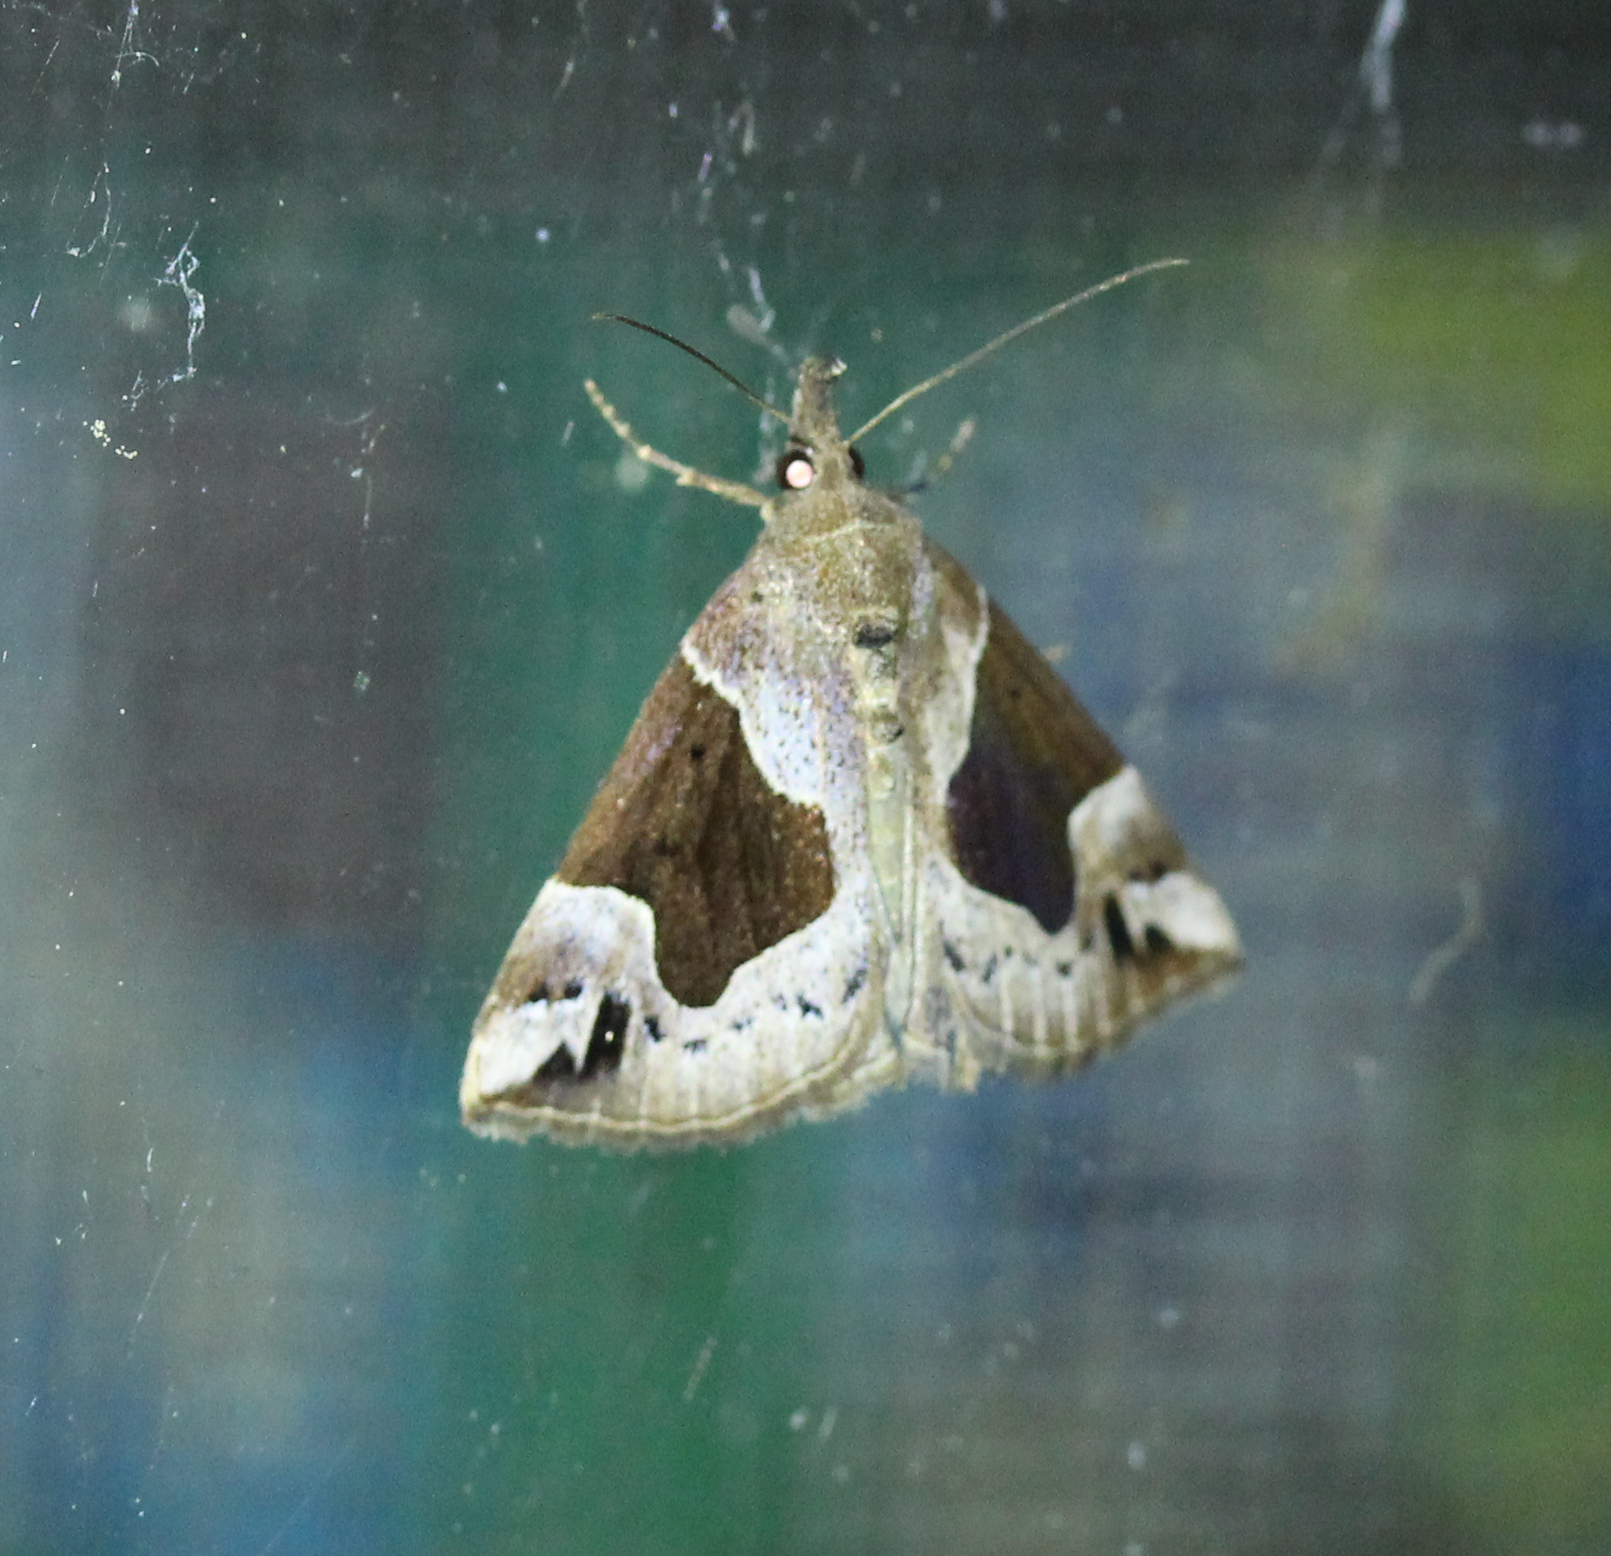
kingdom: Animalia
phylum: Arthropoda
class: Insecta
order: Lepidoptera
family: Erebidae
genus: Hypena
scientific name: Hypena manalis
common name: Flowing-line bomolocha moth
